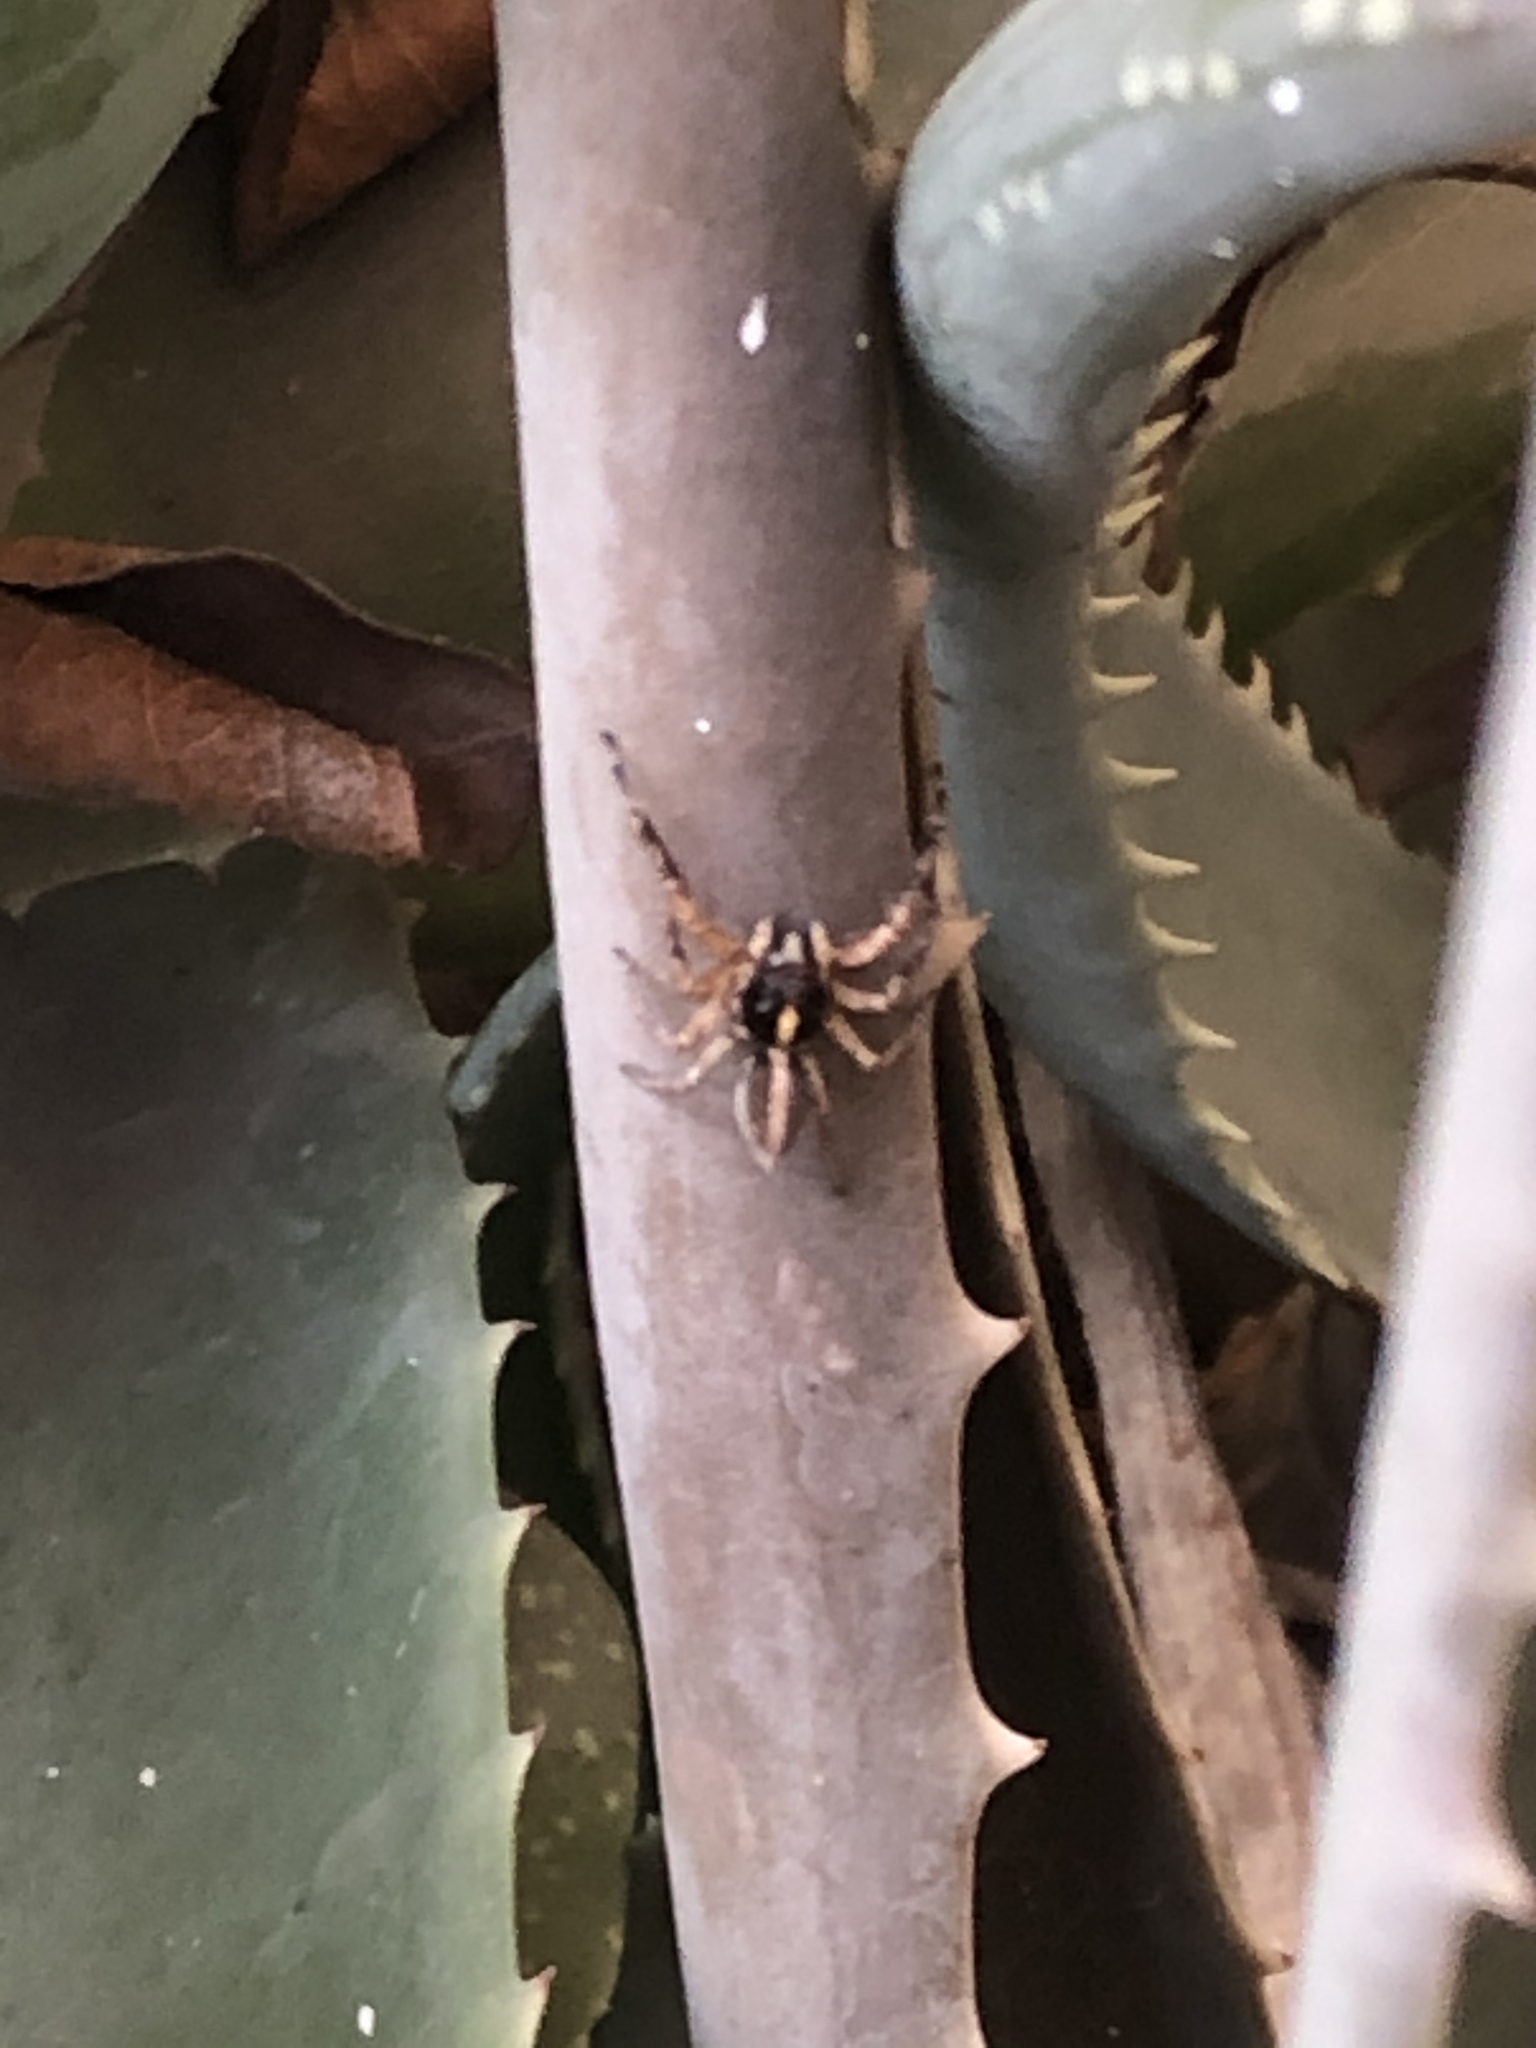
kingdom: Animalia
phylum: Arthropoda
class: Arachnida
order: Araneae
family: Salticidae
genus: Frigga
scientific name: Frigga crocuta
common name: Jumping spiders
